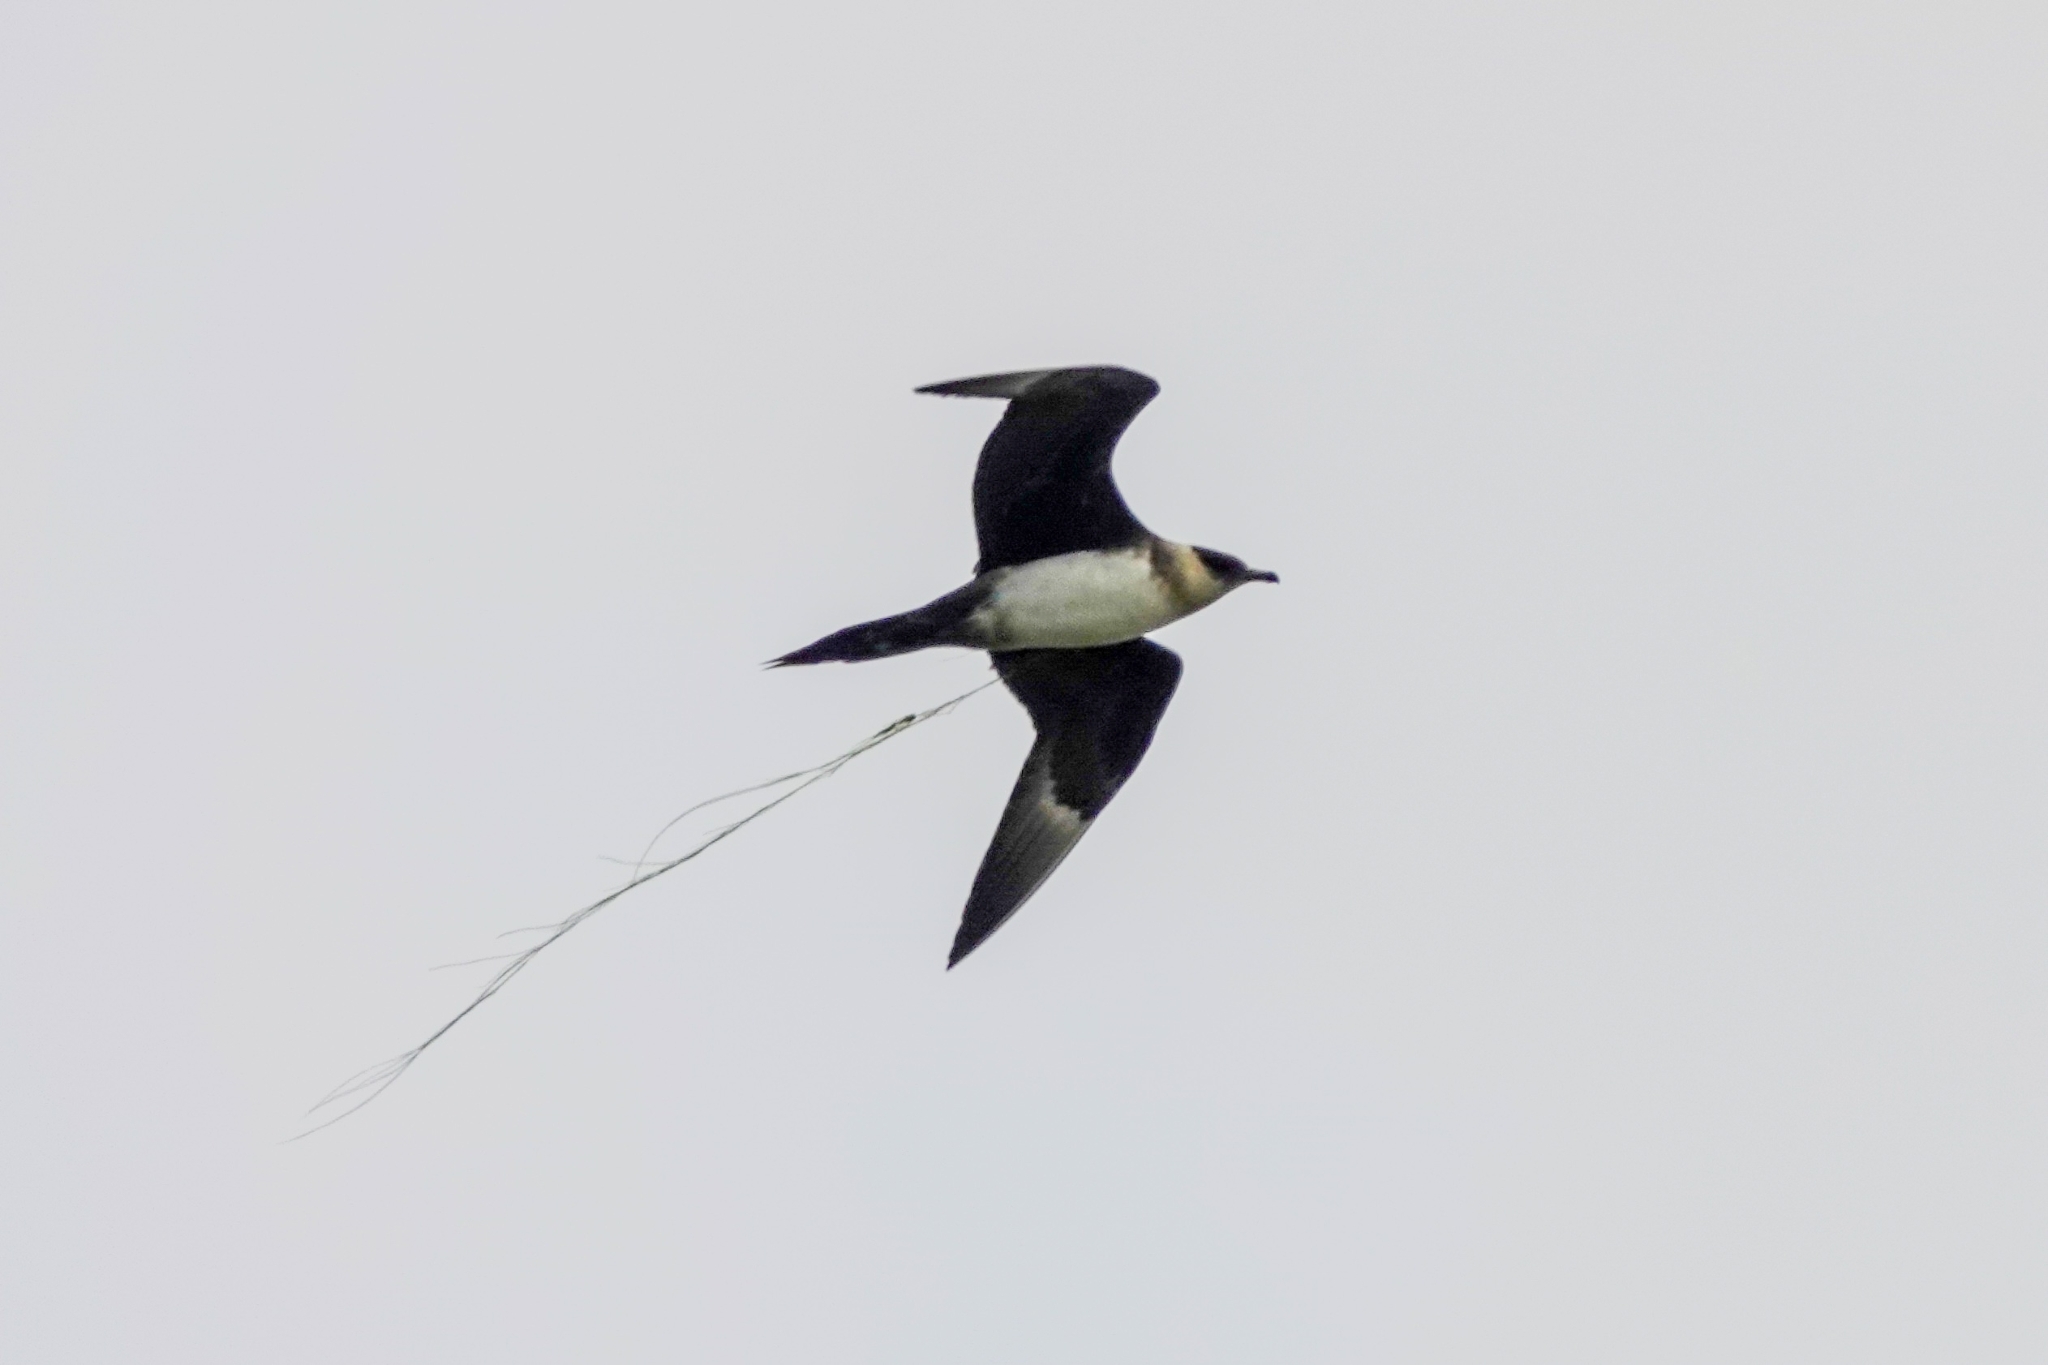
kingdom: Animalia
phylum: Chordata
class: Aves
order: Charadriiformes
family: Stercorariidae
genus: Stercorarius
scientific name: Stercorarius parasiticus
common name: Parasitic jaeger
